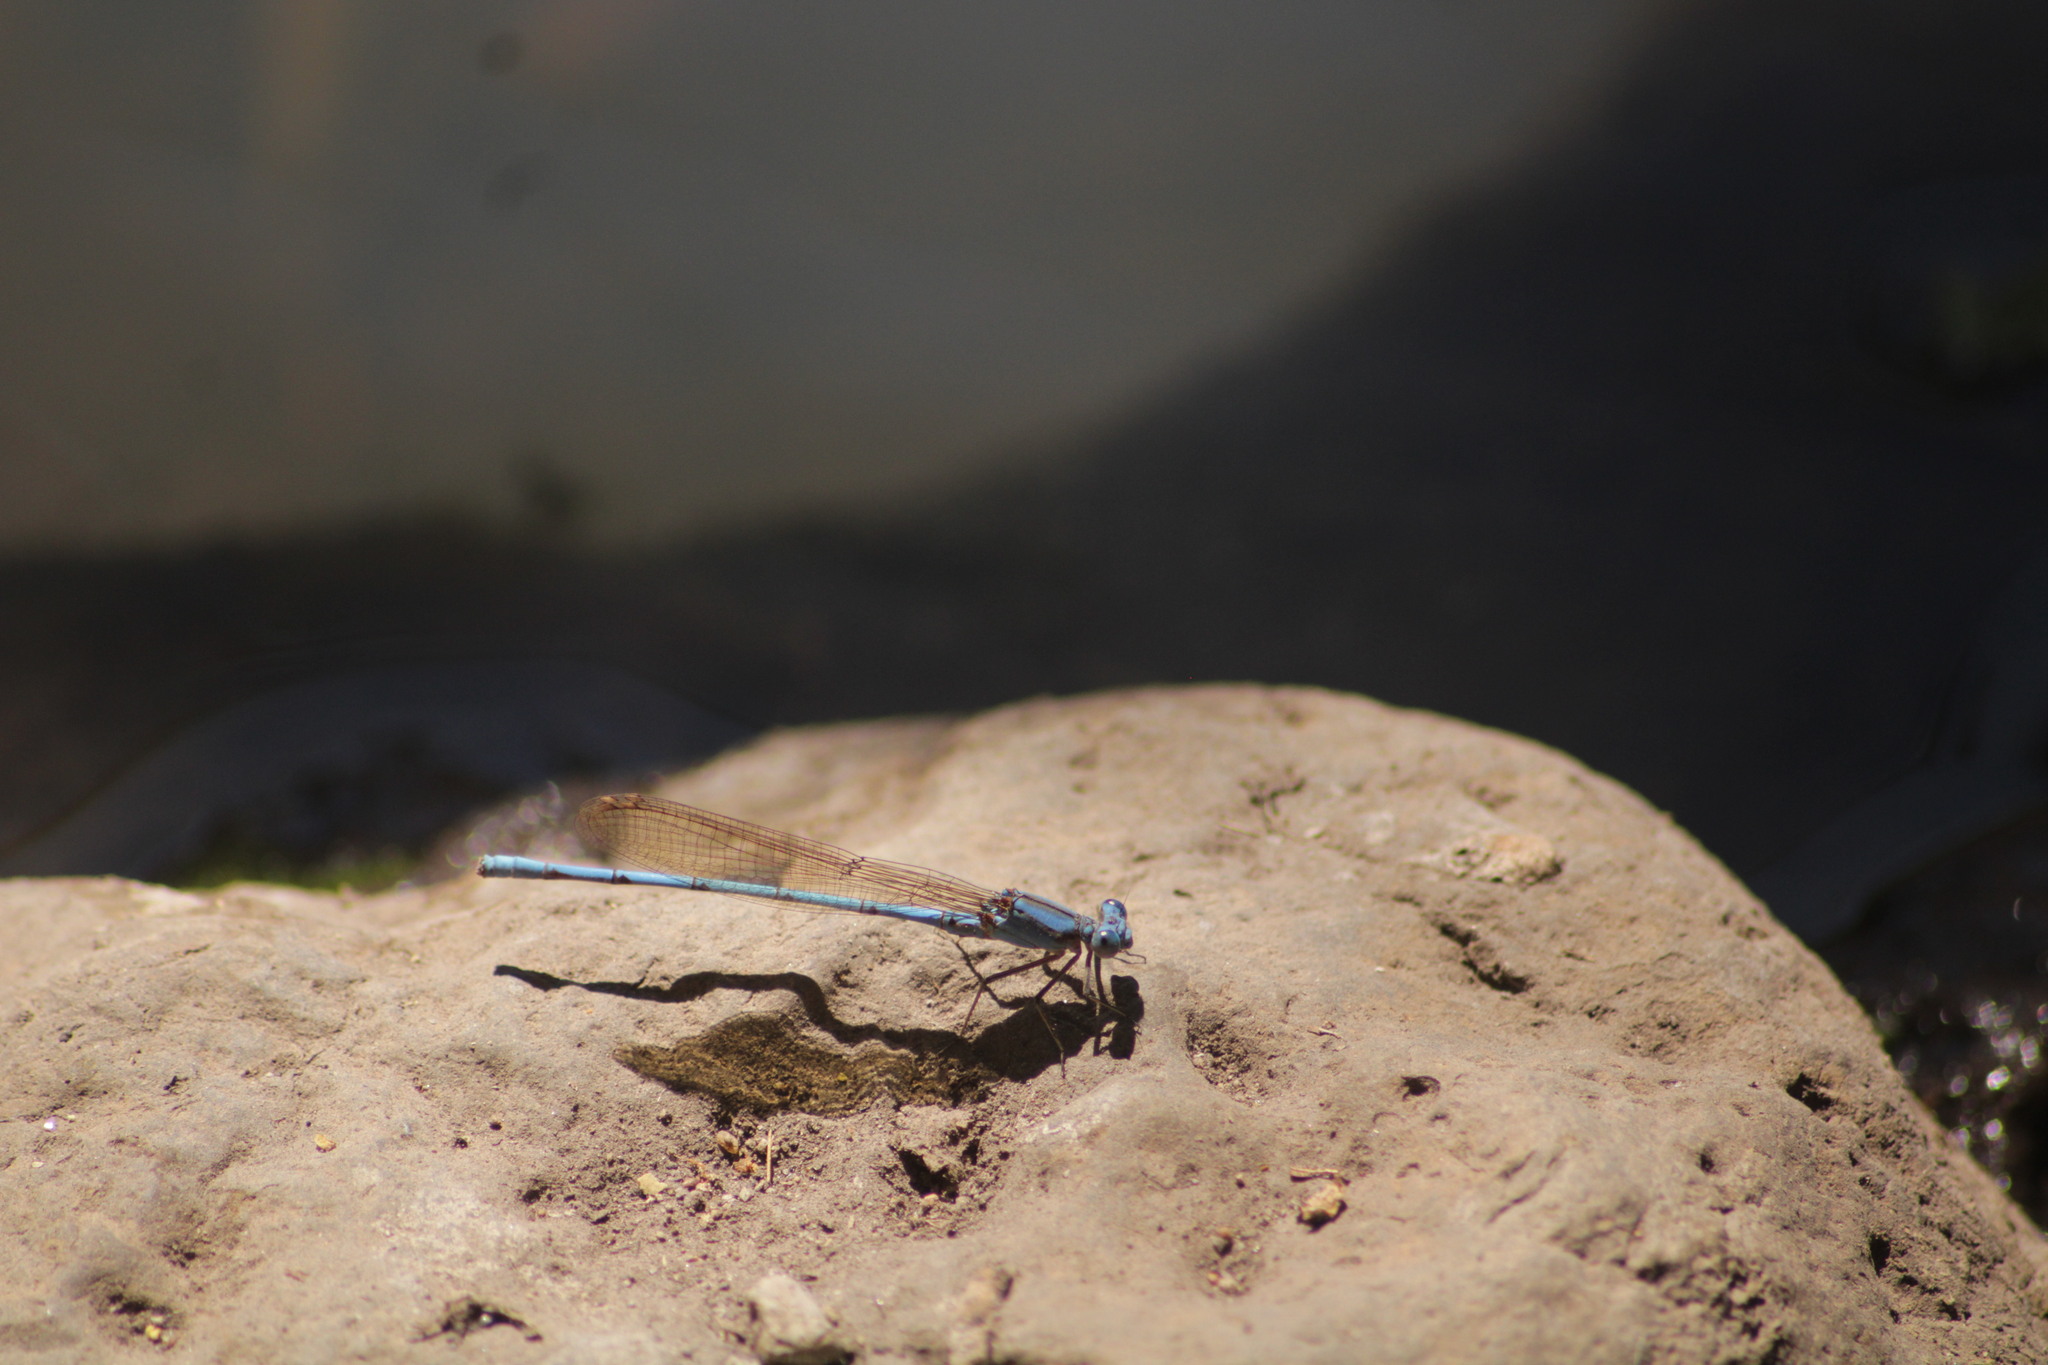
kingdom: Animalia
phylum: Arthropoda
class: Insecta
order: Odonata
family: Coenagrionidae
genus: Argia
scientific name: Argia anceps
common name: Cerulean dancer
